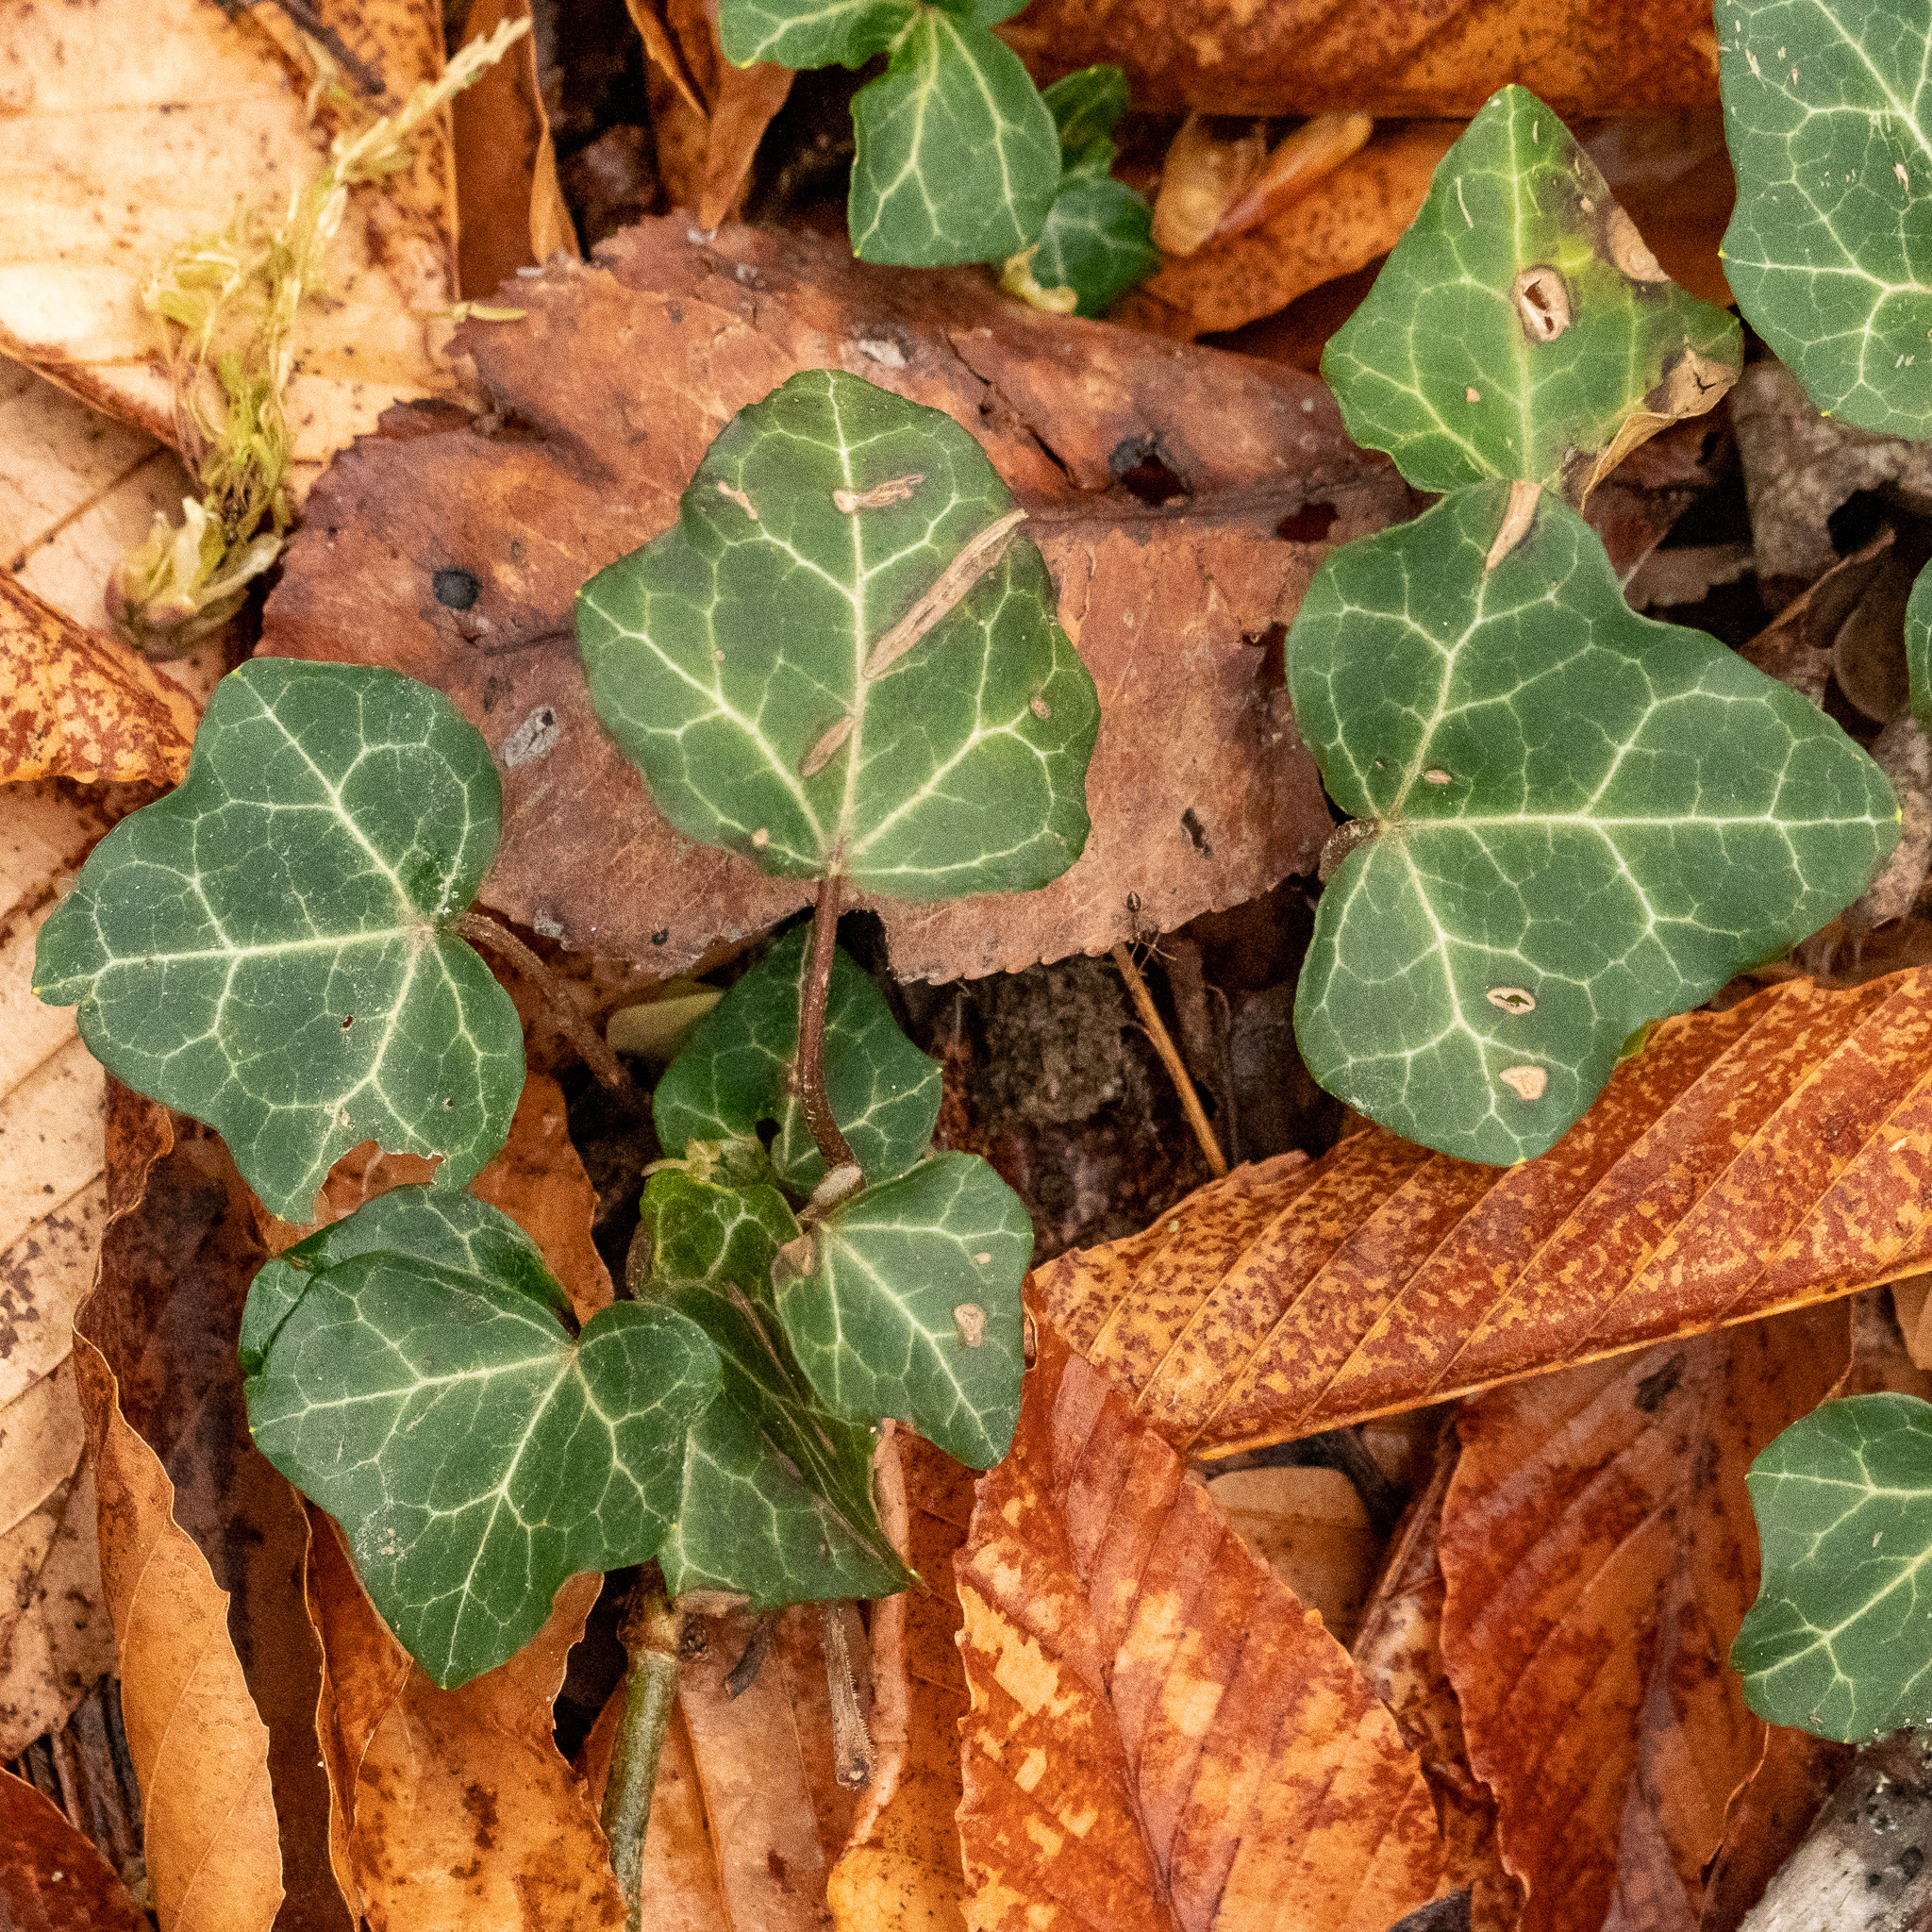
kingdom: Plantae
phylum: Tracheophyta
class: Magnoliopsida
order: Apiales
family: Araliaceae
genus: Hedera
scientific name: Hedera helix
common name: Ivy
